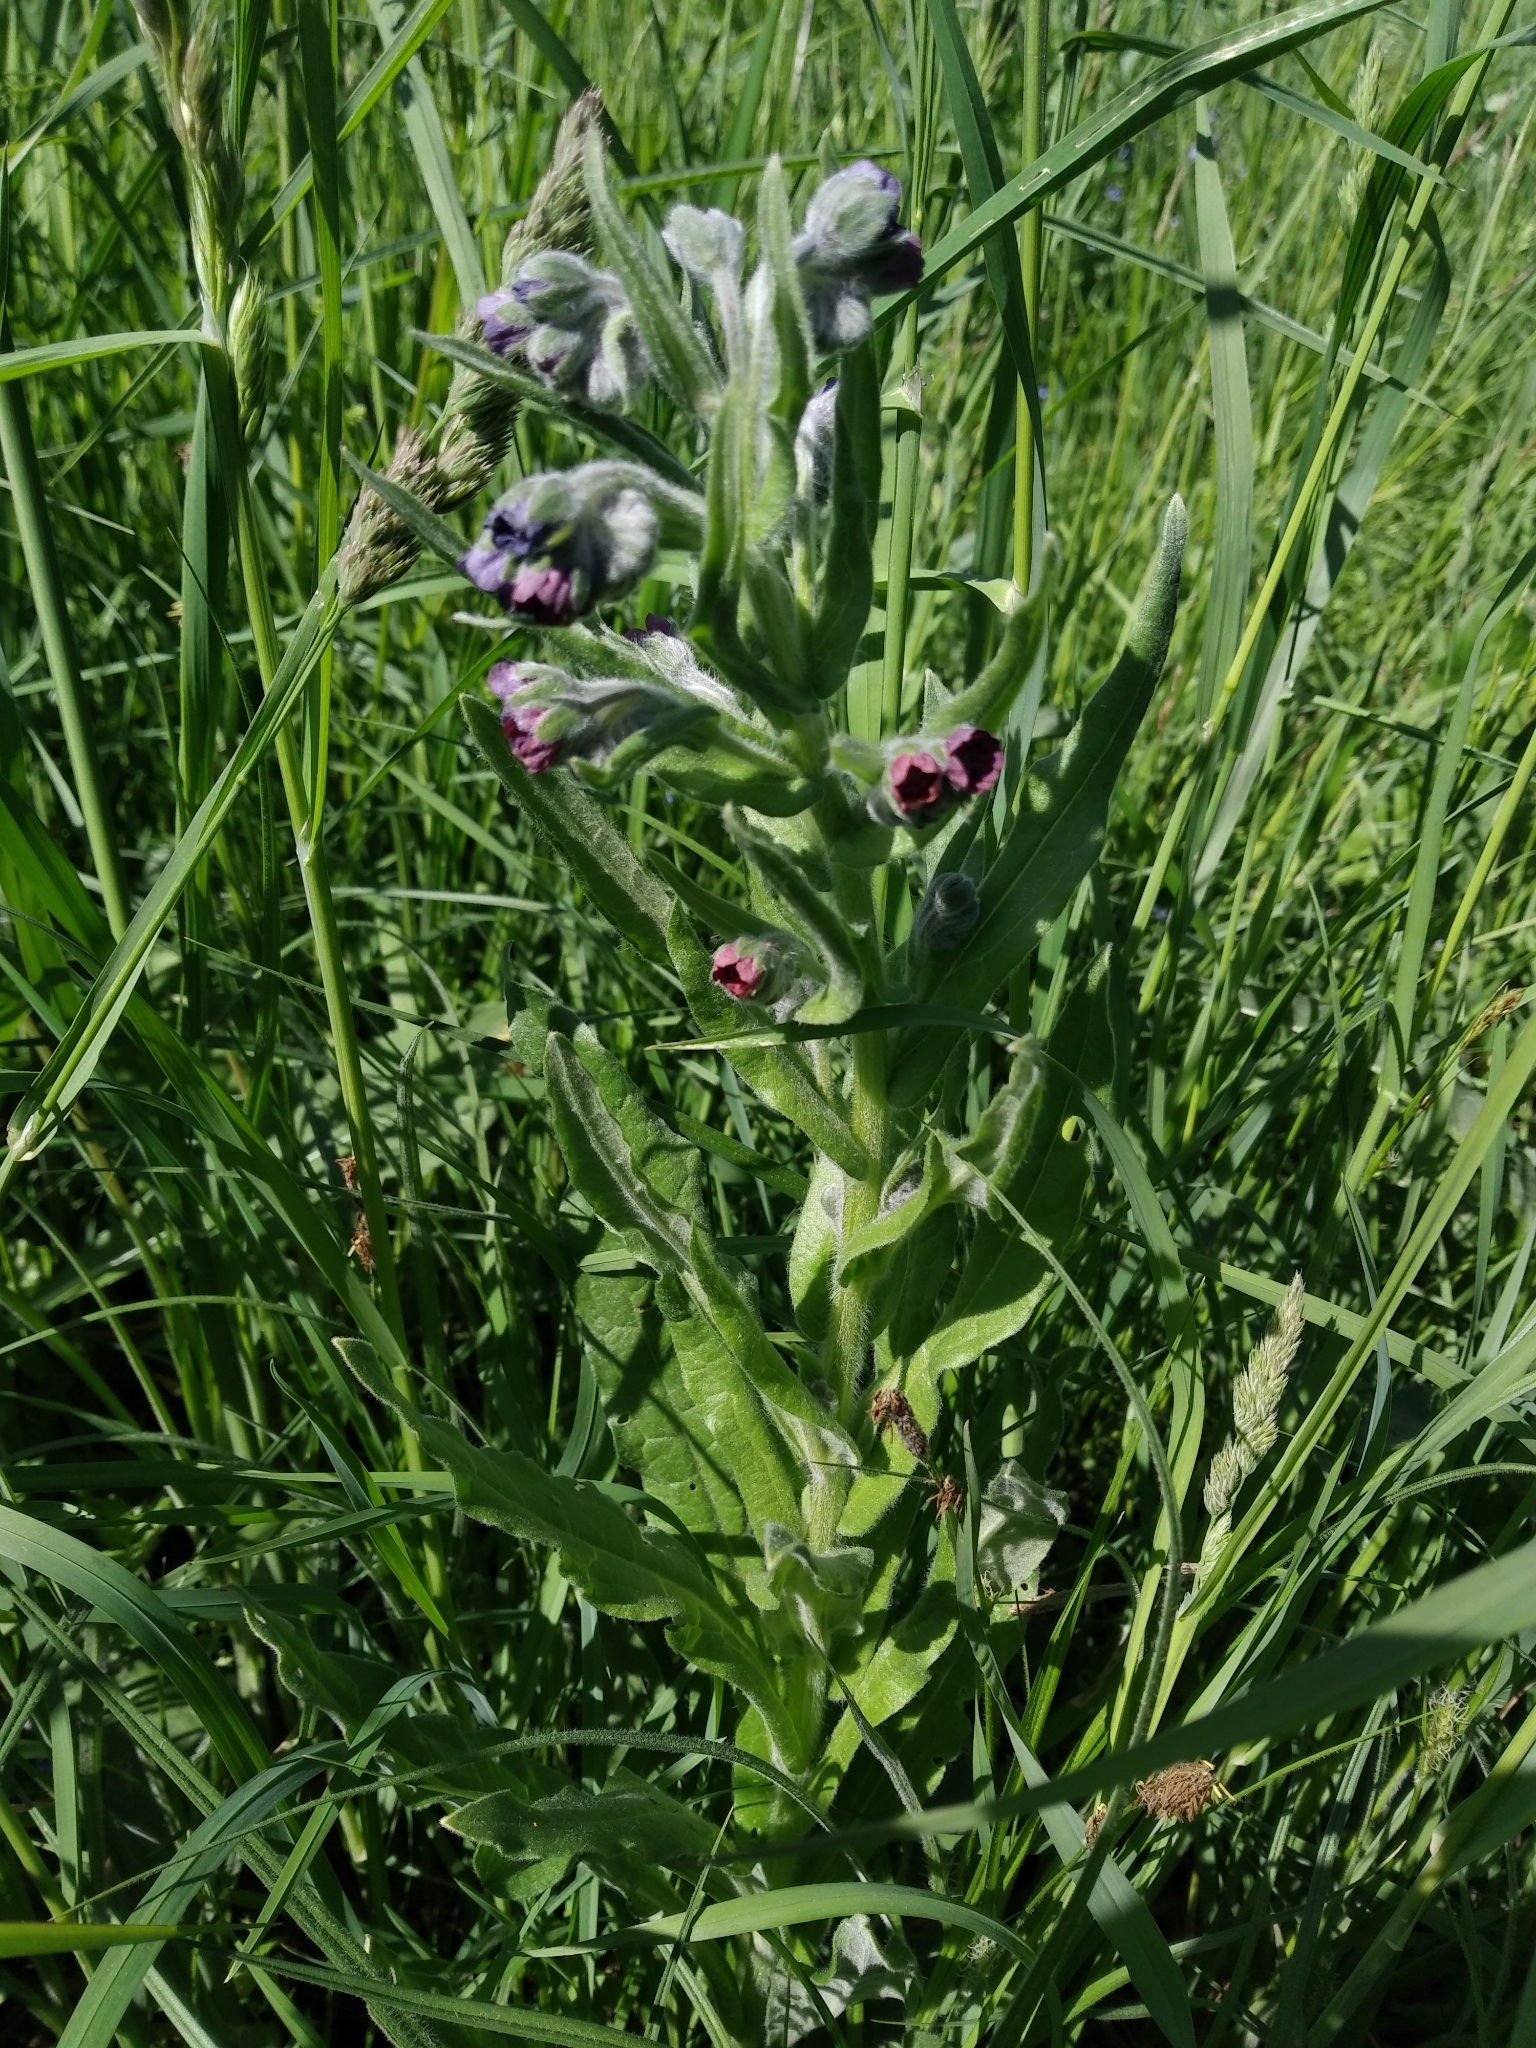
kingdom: Plantae
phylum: Tracheophyta
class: Magnoliopsida
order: Boraginales
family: Boraginaceae
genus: Cynoglossum
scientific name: Cynoglossum officinale
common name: Hound's-tongue
